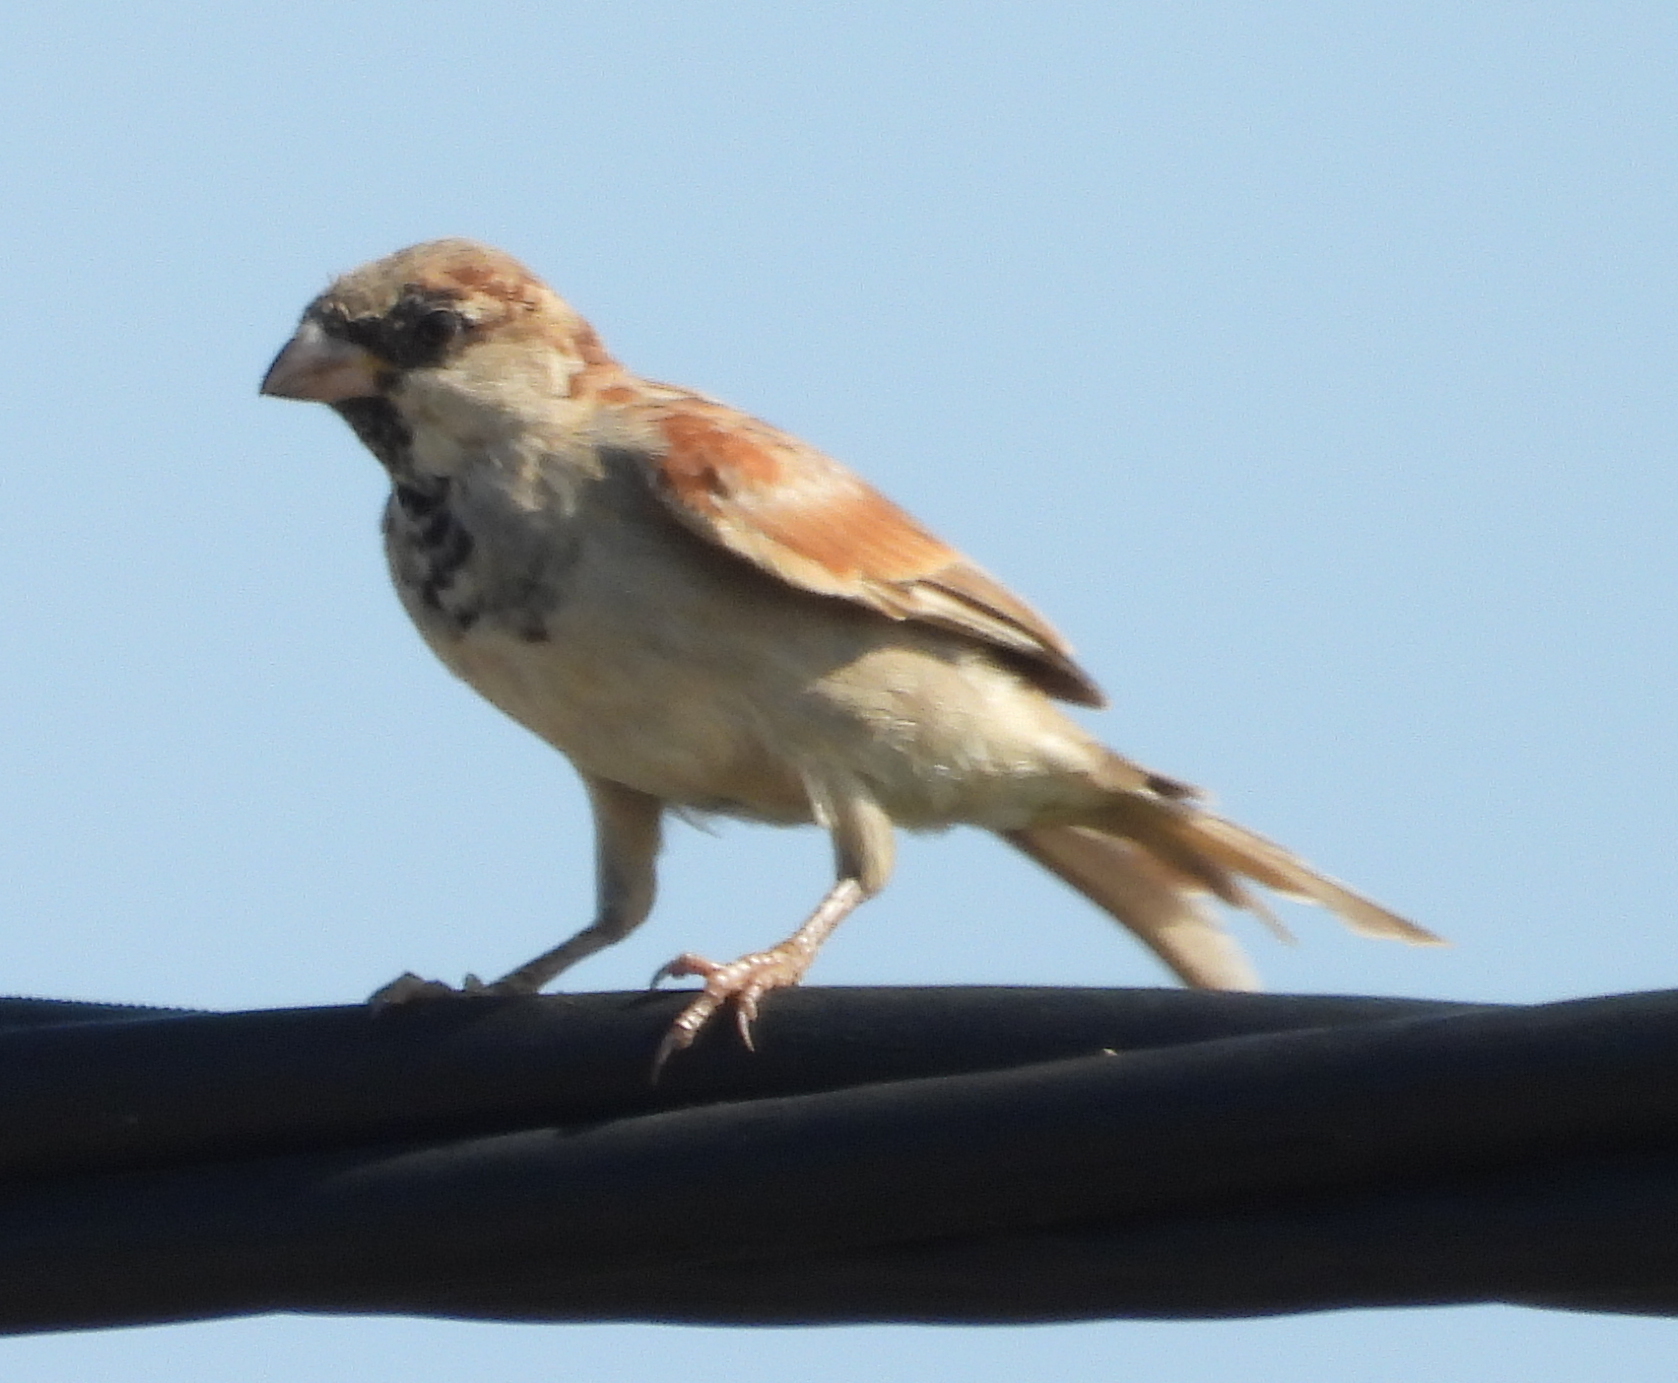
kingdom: Animalia
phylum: Chordata
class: Aves
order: Passeriformes
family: Passeridae
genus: Passer
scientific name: Passer domesticus
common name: House sparrow
